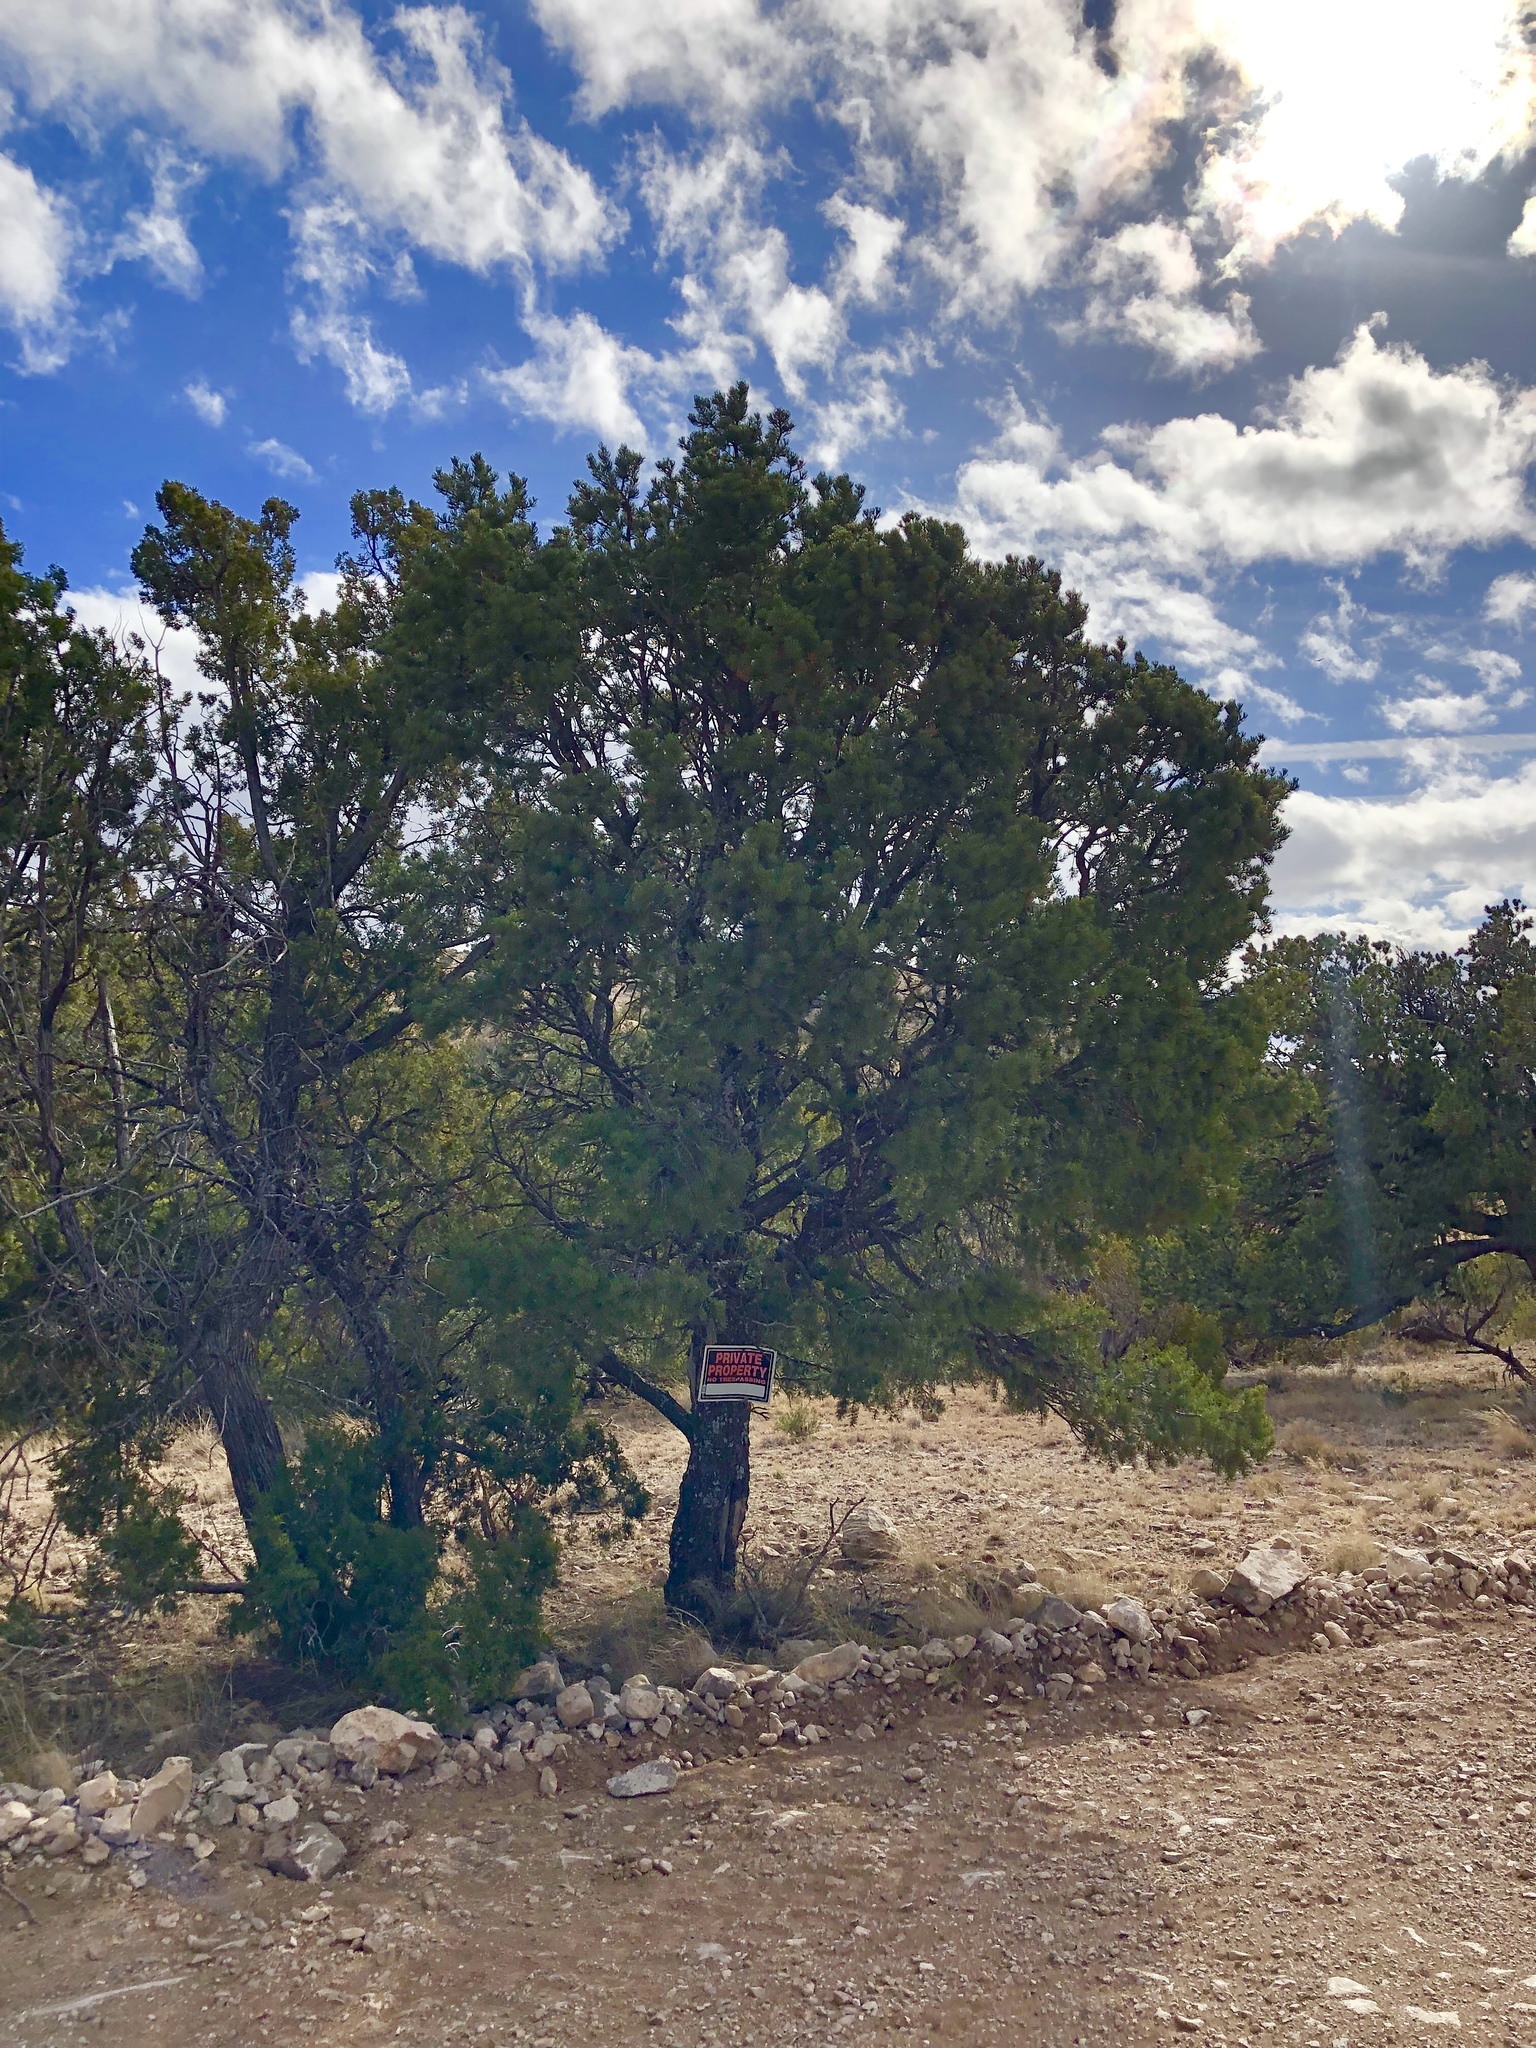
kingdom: Plantae
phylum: Tracheophyta
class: Pinopsida
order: Pinales
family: Pinaceae
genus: Pinus
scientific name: Pinus edulis
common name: Colorado pinyon
